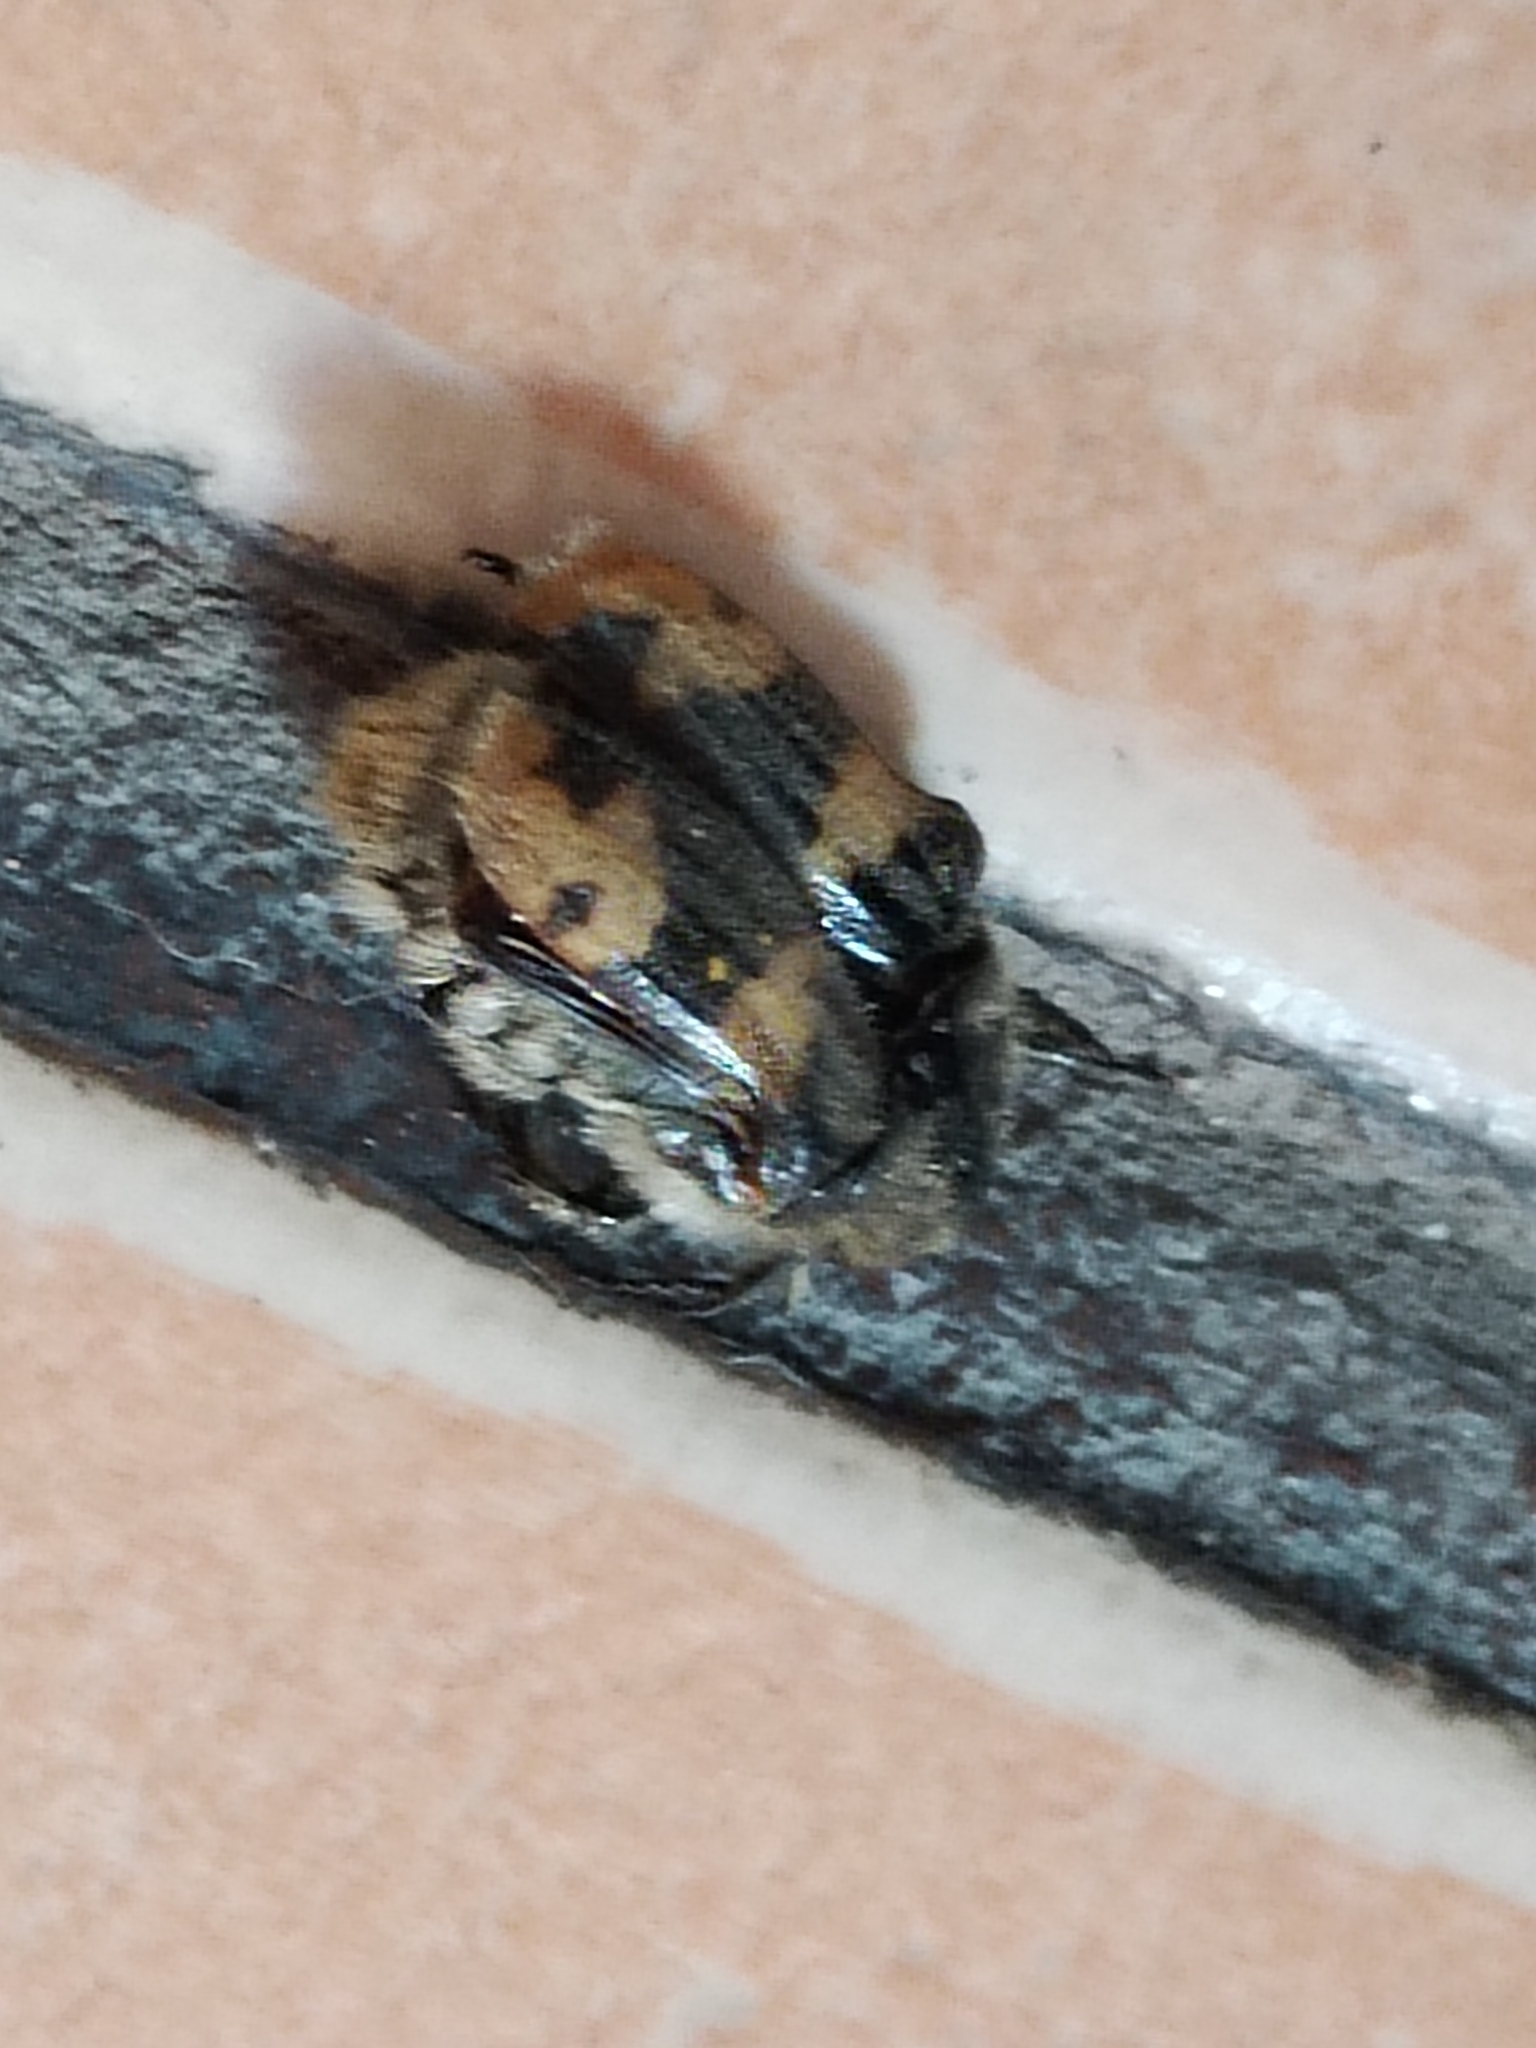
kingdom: Animalia
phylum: Arthropoda
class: Insecta
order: Coleoptera
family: Scarabaeidae
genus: Euphoria
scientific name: Euphoria basalis
